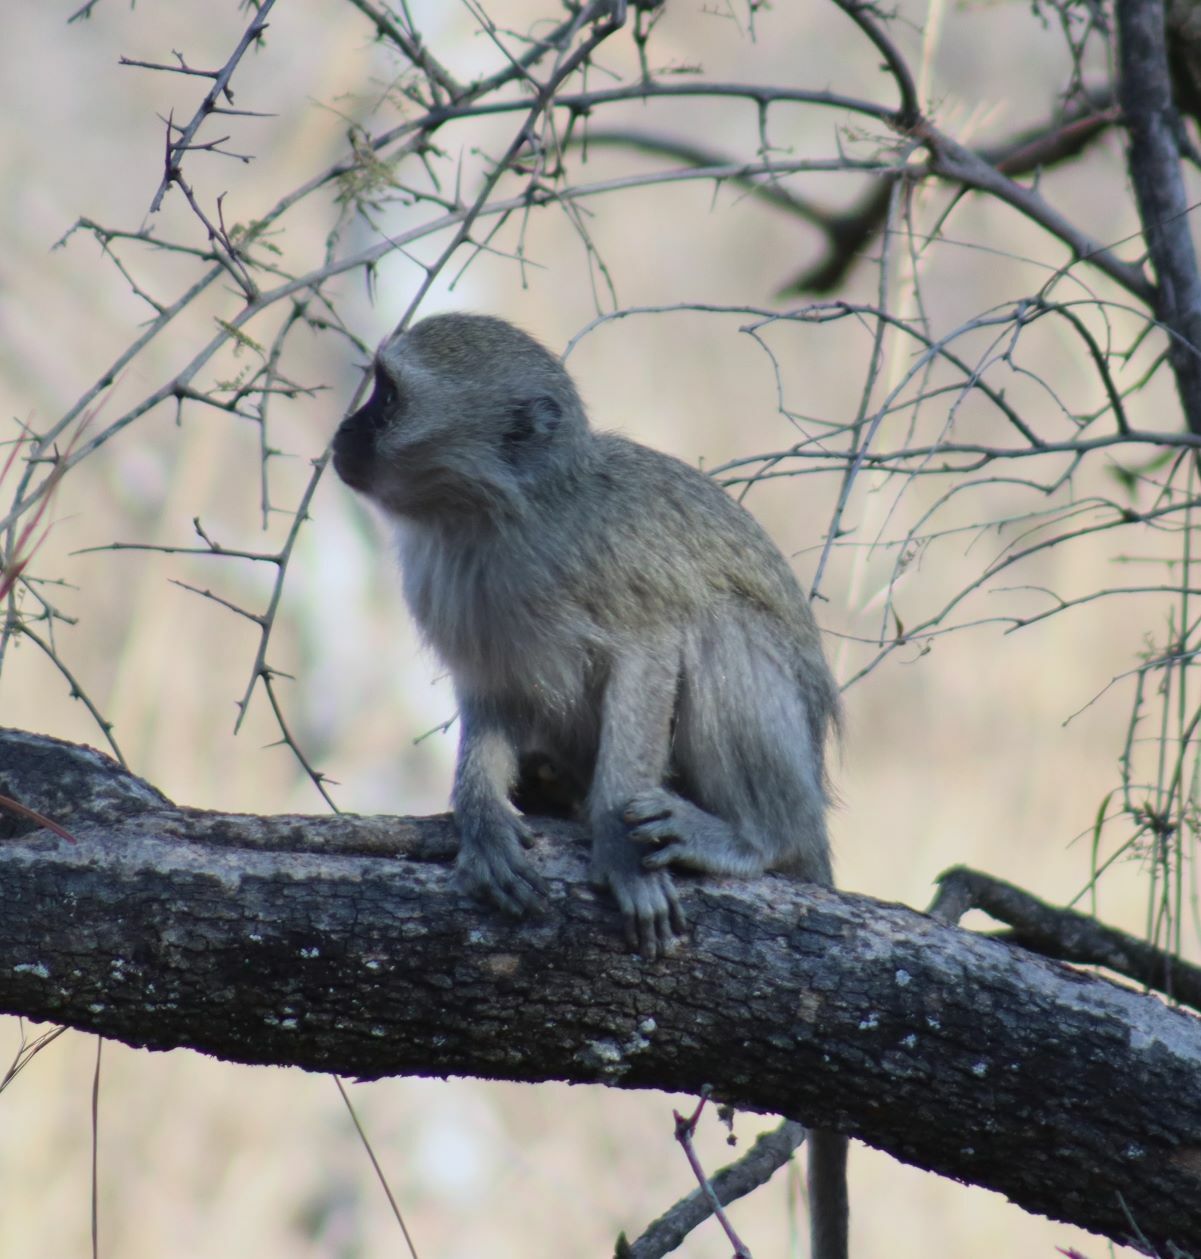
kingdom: Animalia
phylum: Chordata
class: Mammalia
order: Primates
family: Cercopithecidae
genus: Chlorocebus
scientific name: Chlorocebus pygerythrus
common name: Vervet monkey
